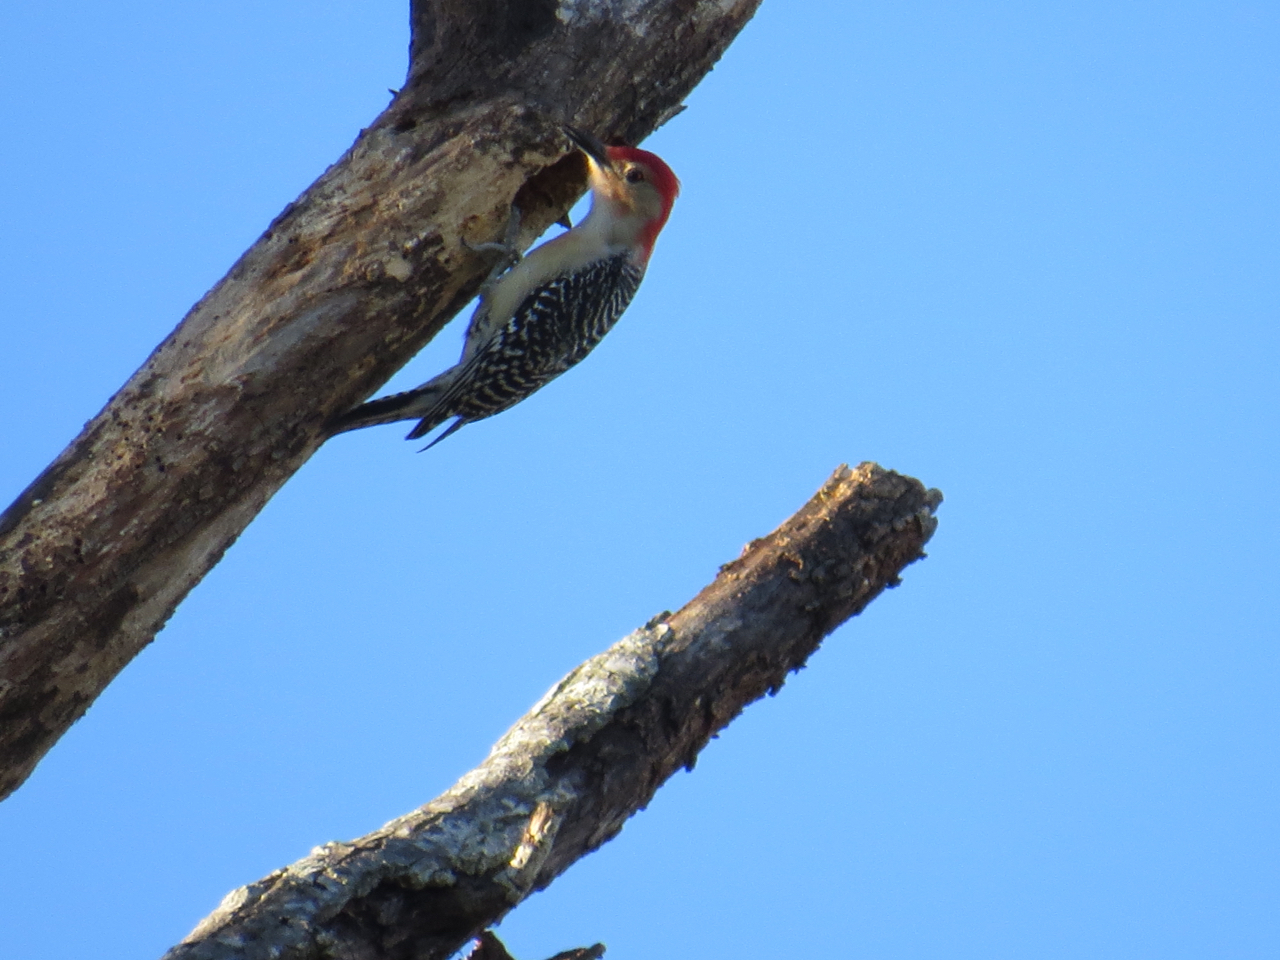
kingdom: Animalia
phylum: Chordata
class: Aves
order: Piciformes
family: Picidae
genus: Melanerpes
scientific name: Melanerpes carolinus
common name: Red-bellied woodpecker
